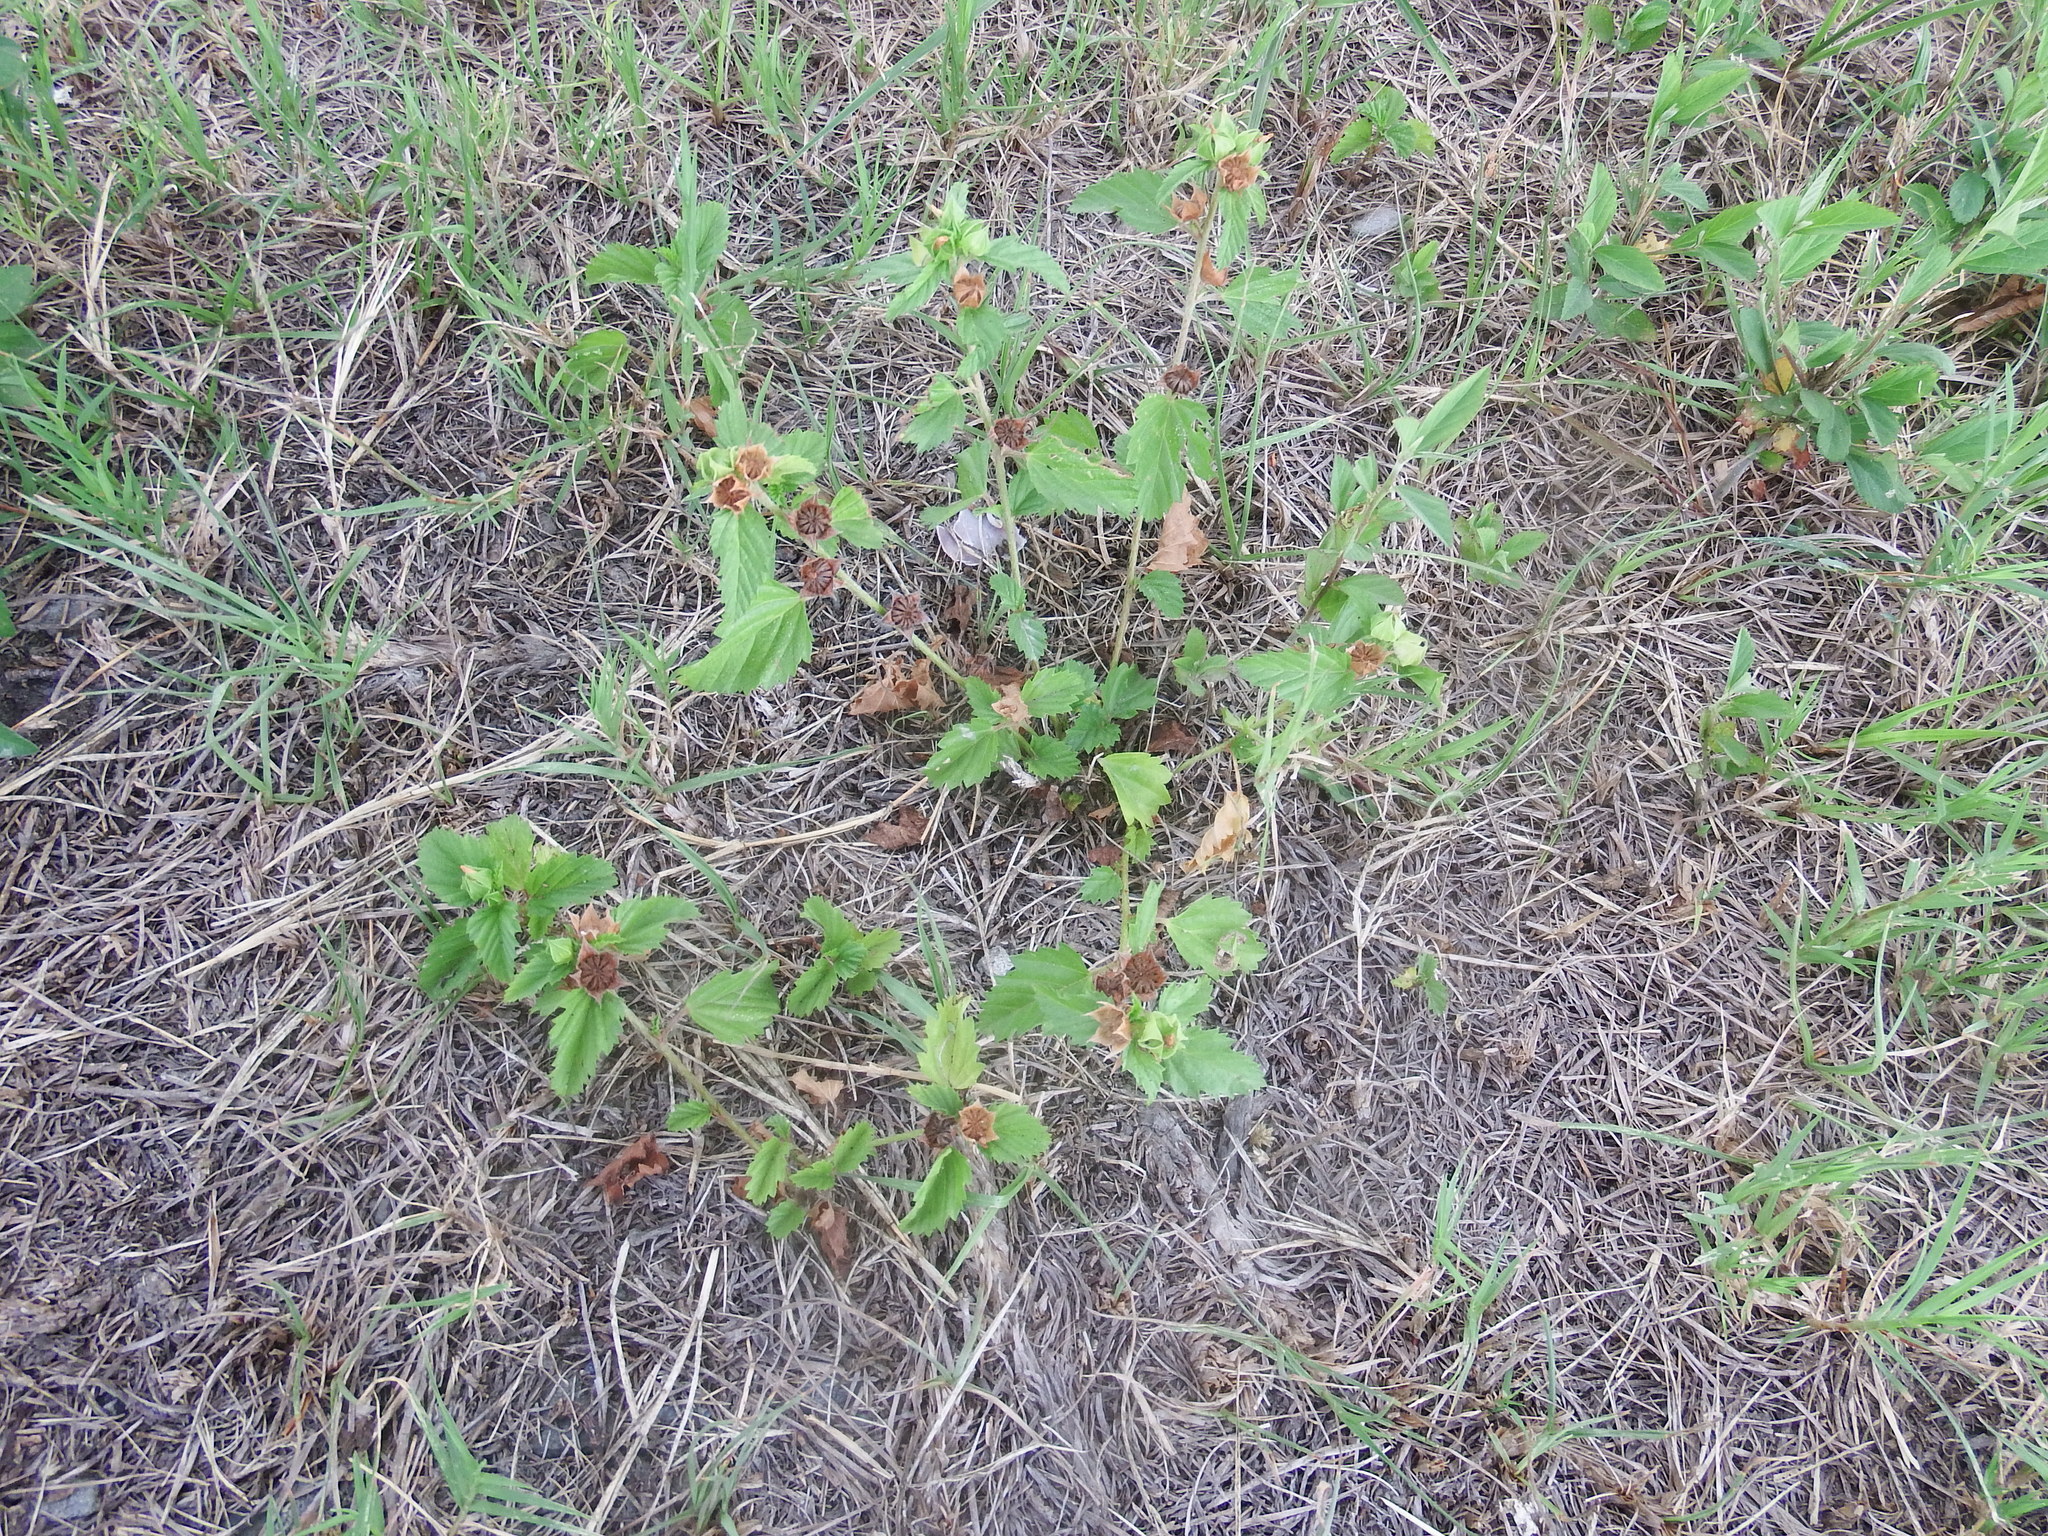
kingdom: Plantae
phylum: Tracheophyta
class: Magnoliopsida
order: Malvales
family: Malvaceae
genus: Malvastrum
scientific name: Malvastrum coromandelianum
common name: Threelobe false mallow
